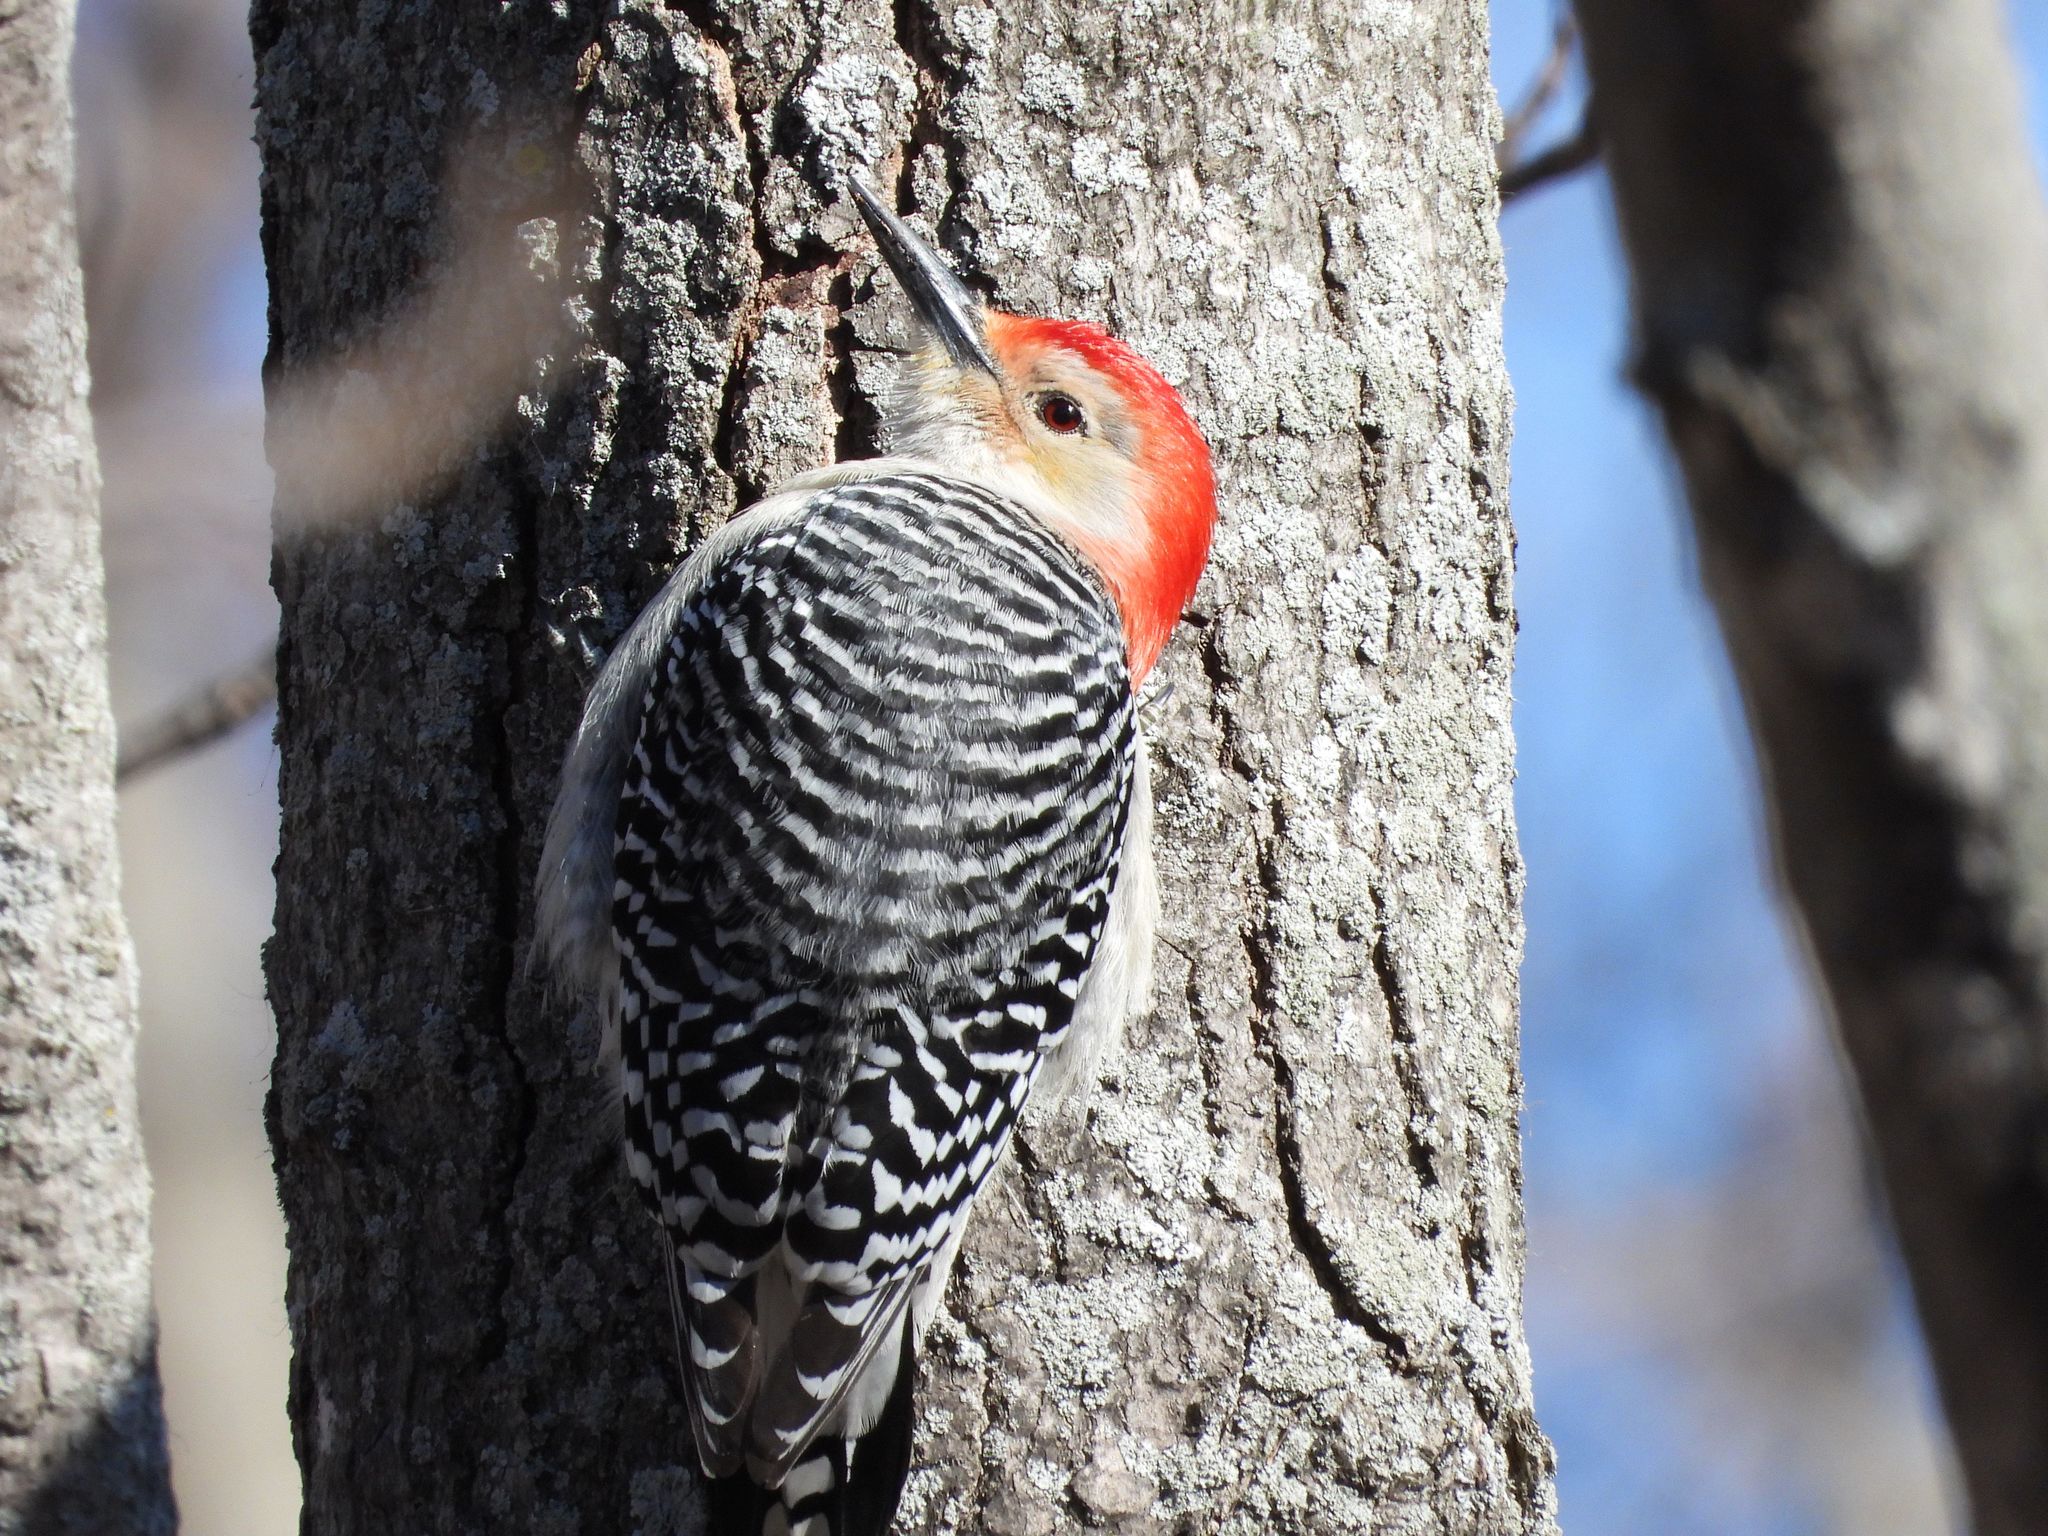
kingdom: Animalia
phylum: Chordata
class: Aves
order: Piciformes
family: Picidae
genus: Melanerpes
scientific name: Melanerpes carolinus
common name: Red-bellied woodpecker
